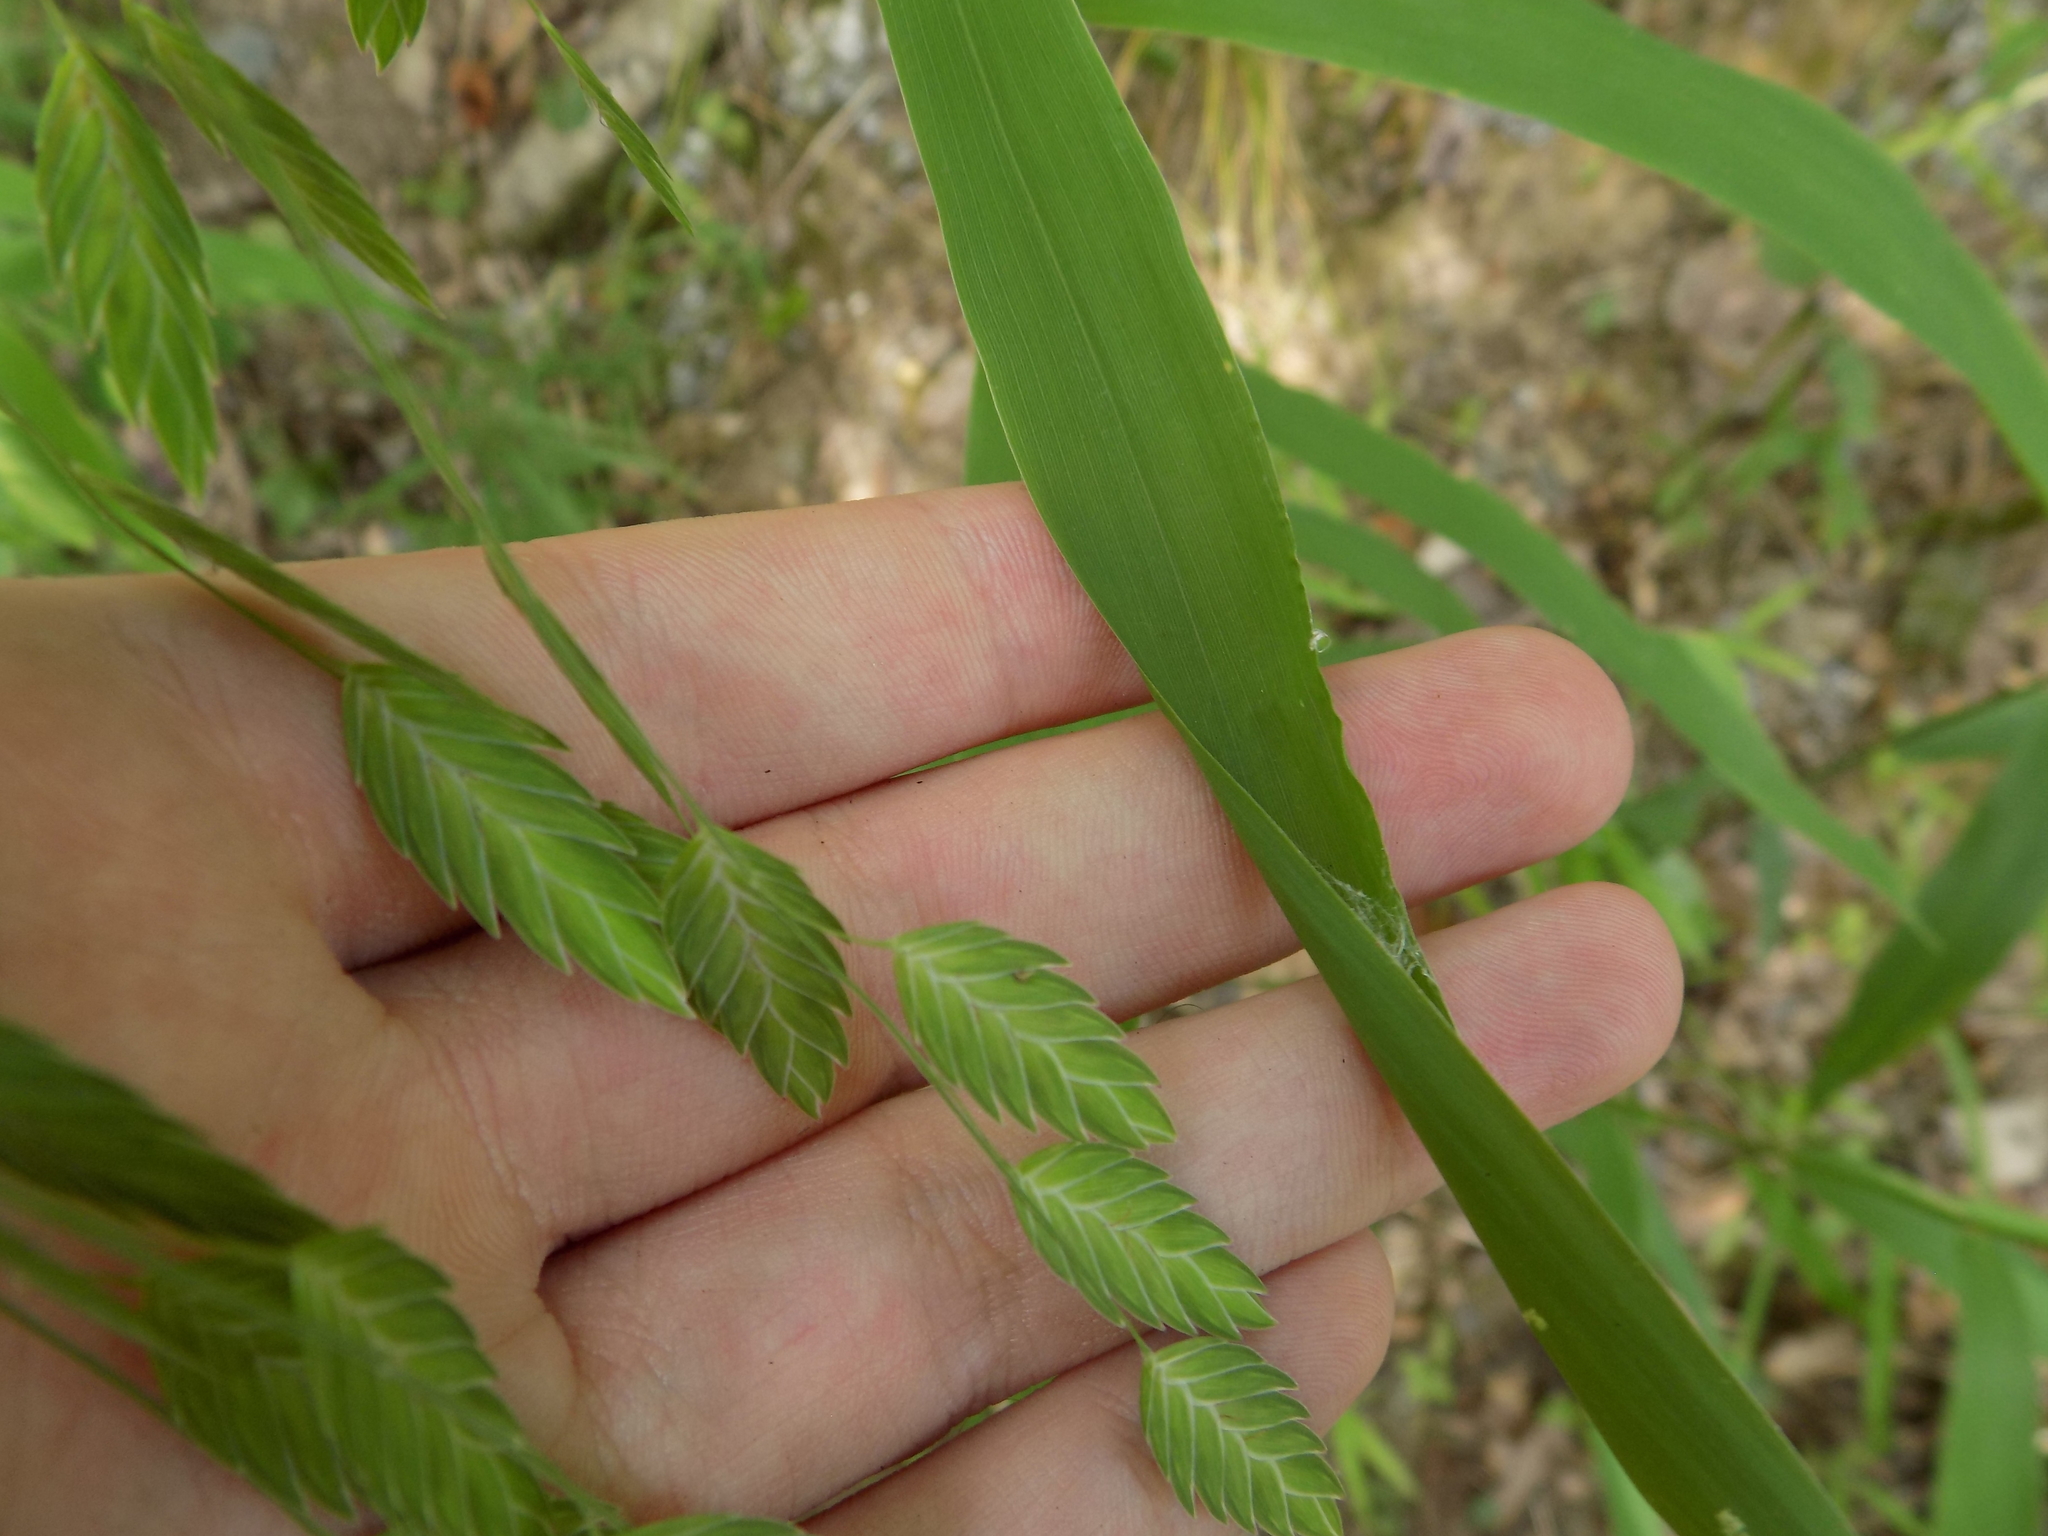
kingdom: Plantae
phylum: Tracheophyta
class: Liliopsida
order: Poales
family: Poaceae
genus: Chasmanthium
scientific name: Chasmanthium latifolium
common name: Broad-leaved chasmanthium
